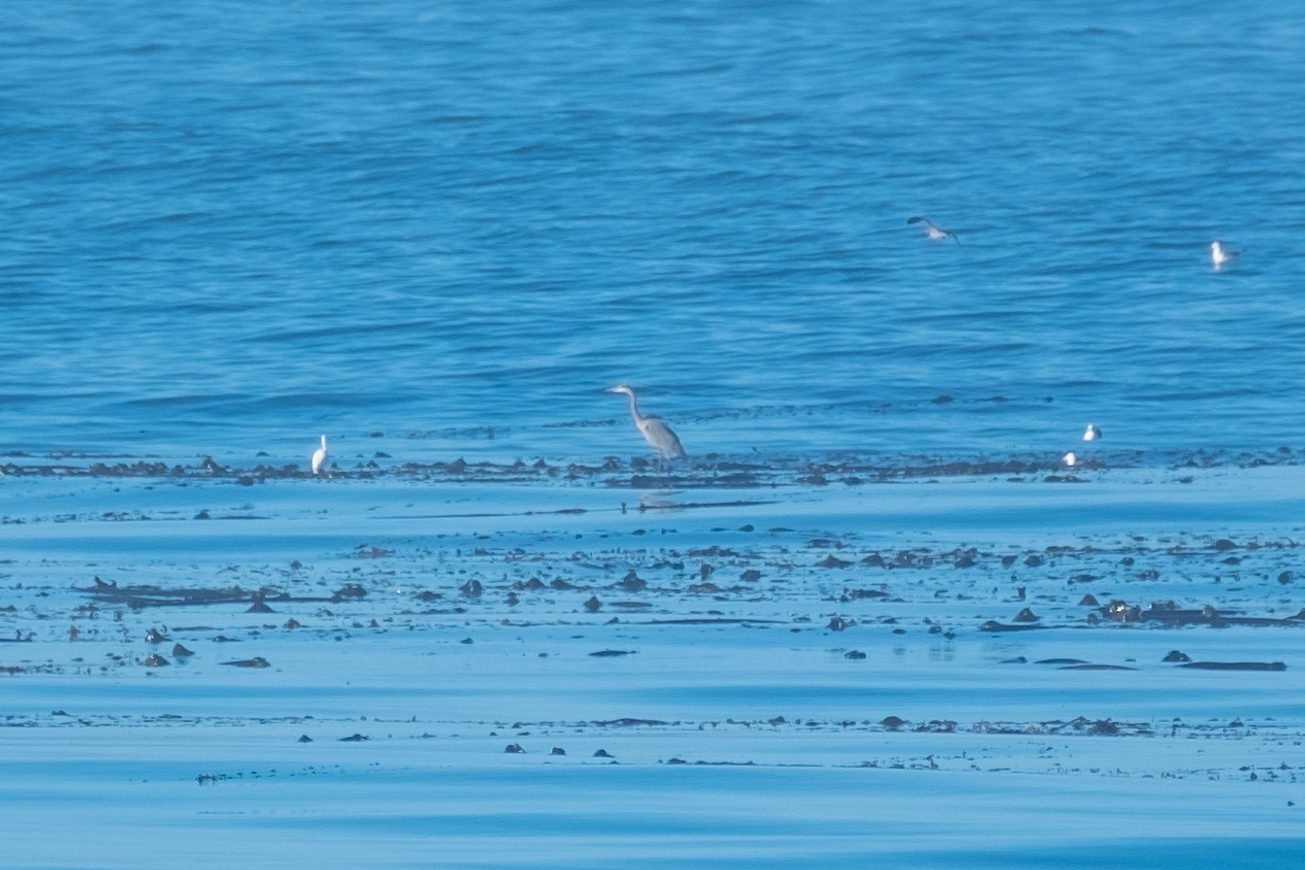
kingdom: Animalia
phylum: Chordata
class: Aves
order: Pelecaniformes
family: Ardeidae
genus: Ardea
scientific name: Ardea herodias
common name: Great blue heron
